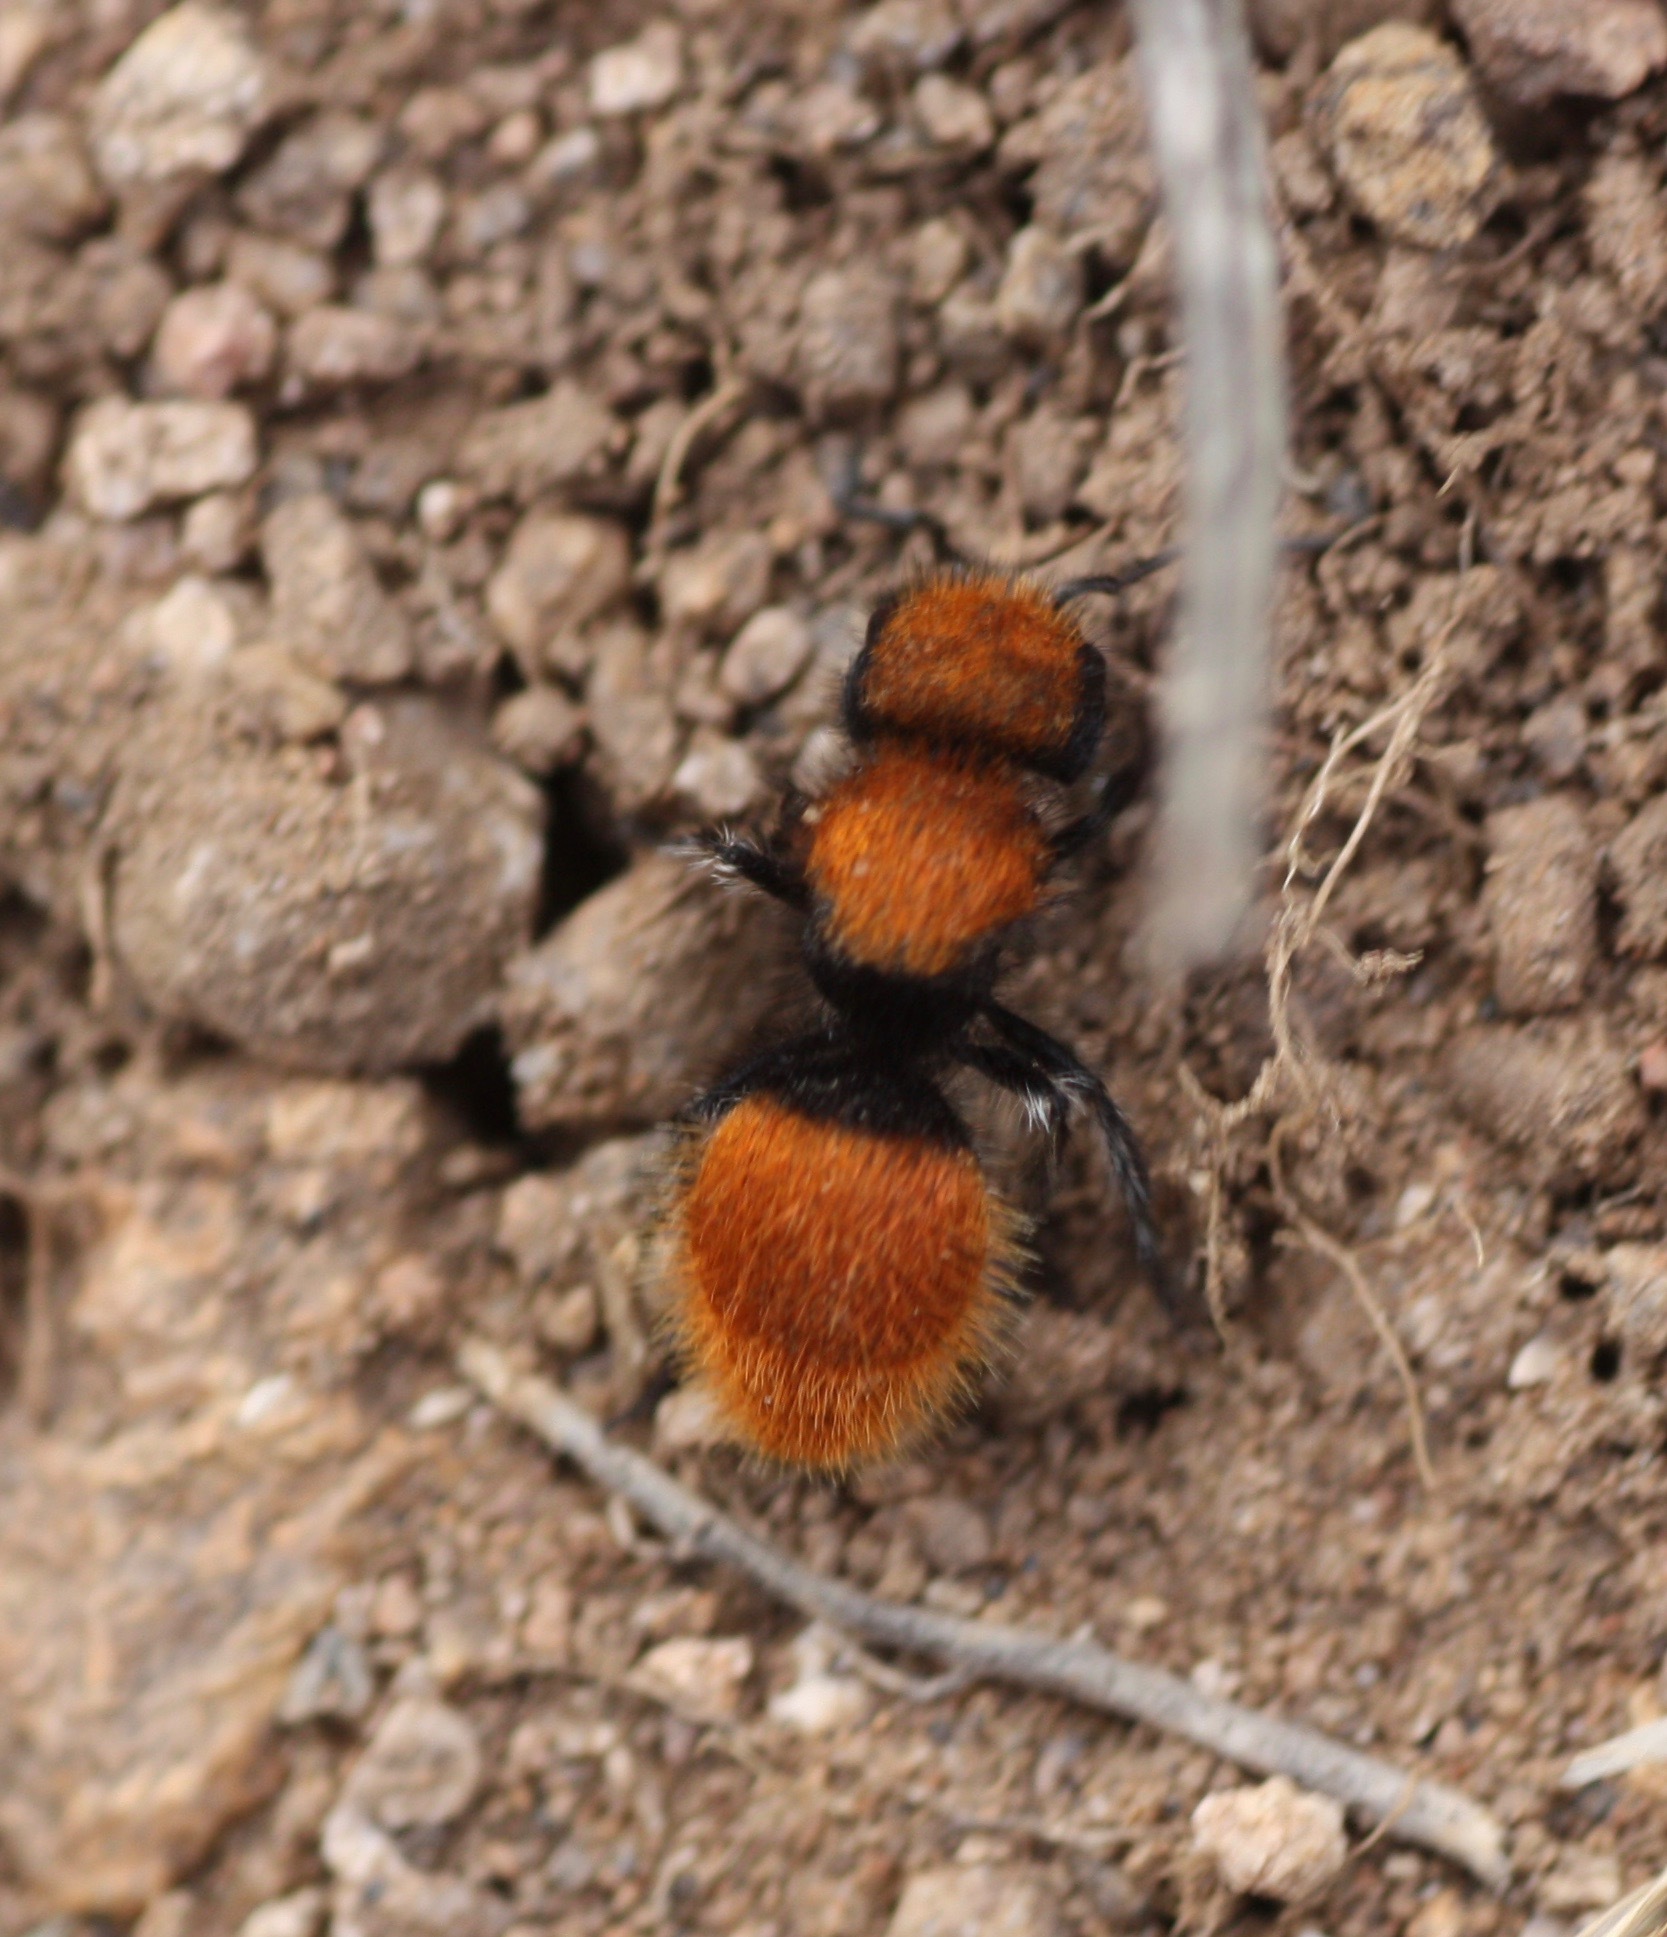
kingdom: Animalia
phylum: Arthropoda
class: Insecta
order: Hymenoptera
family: Mutillidae
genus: Pseudomethoca
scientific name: Pseudomethoca
